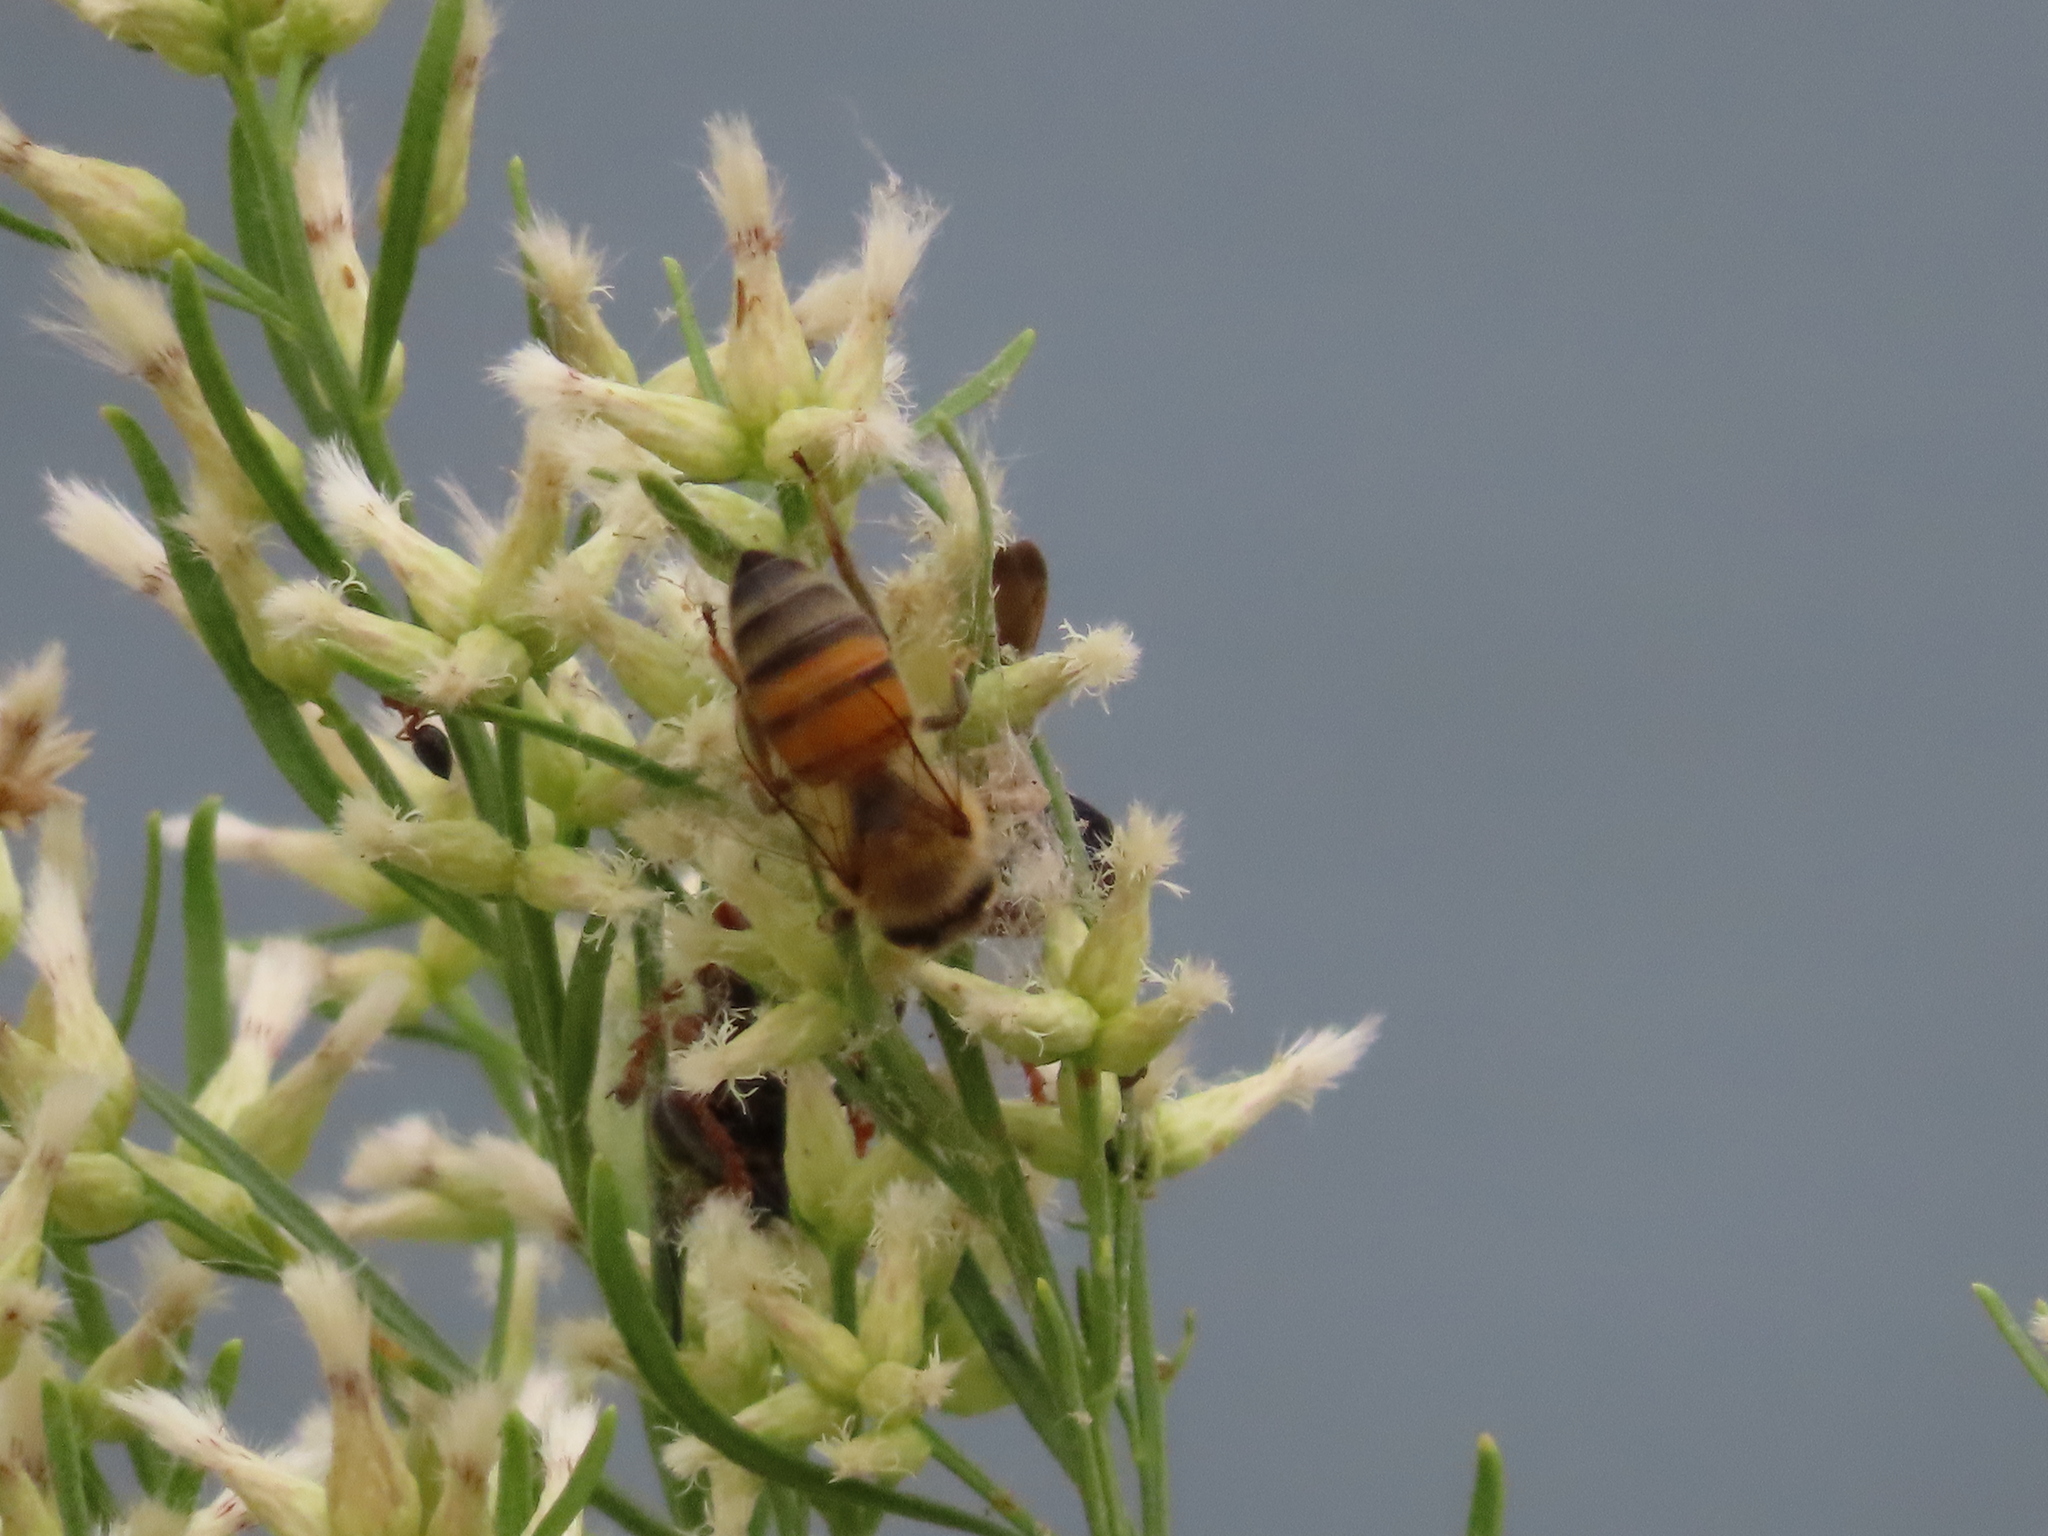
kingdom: Animalia
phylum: Arthropoda
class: Insecta
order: Hymenoptera
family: Apidae
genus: Apis
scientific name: Apis mellifera
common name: Honey bee
